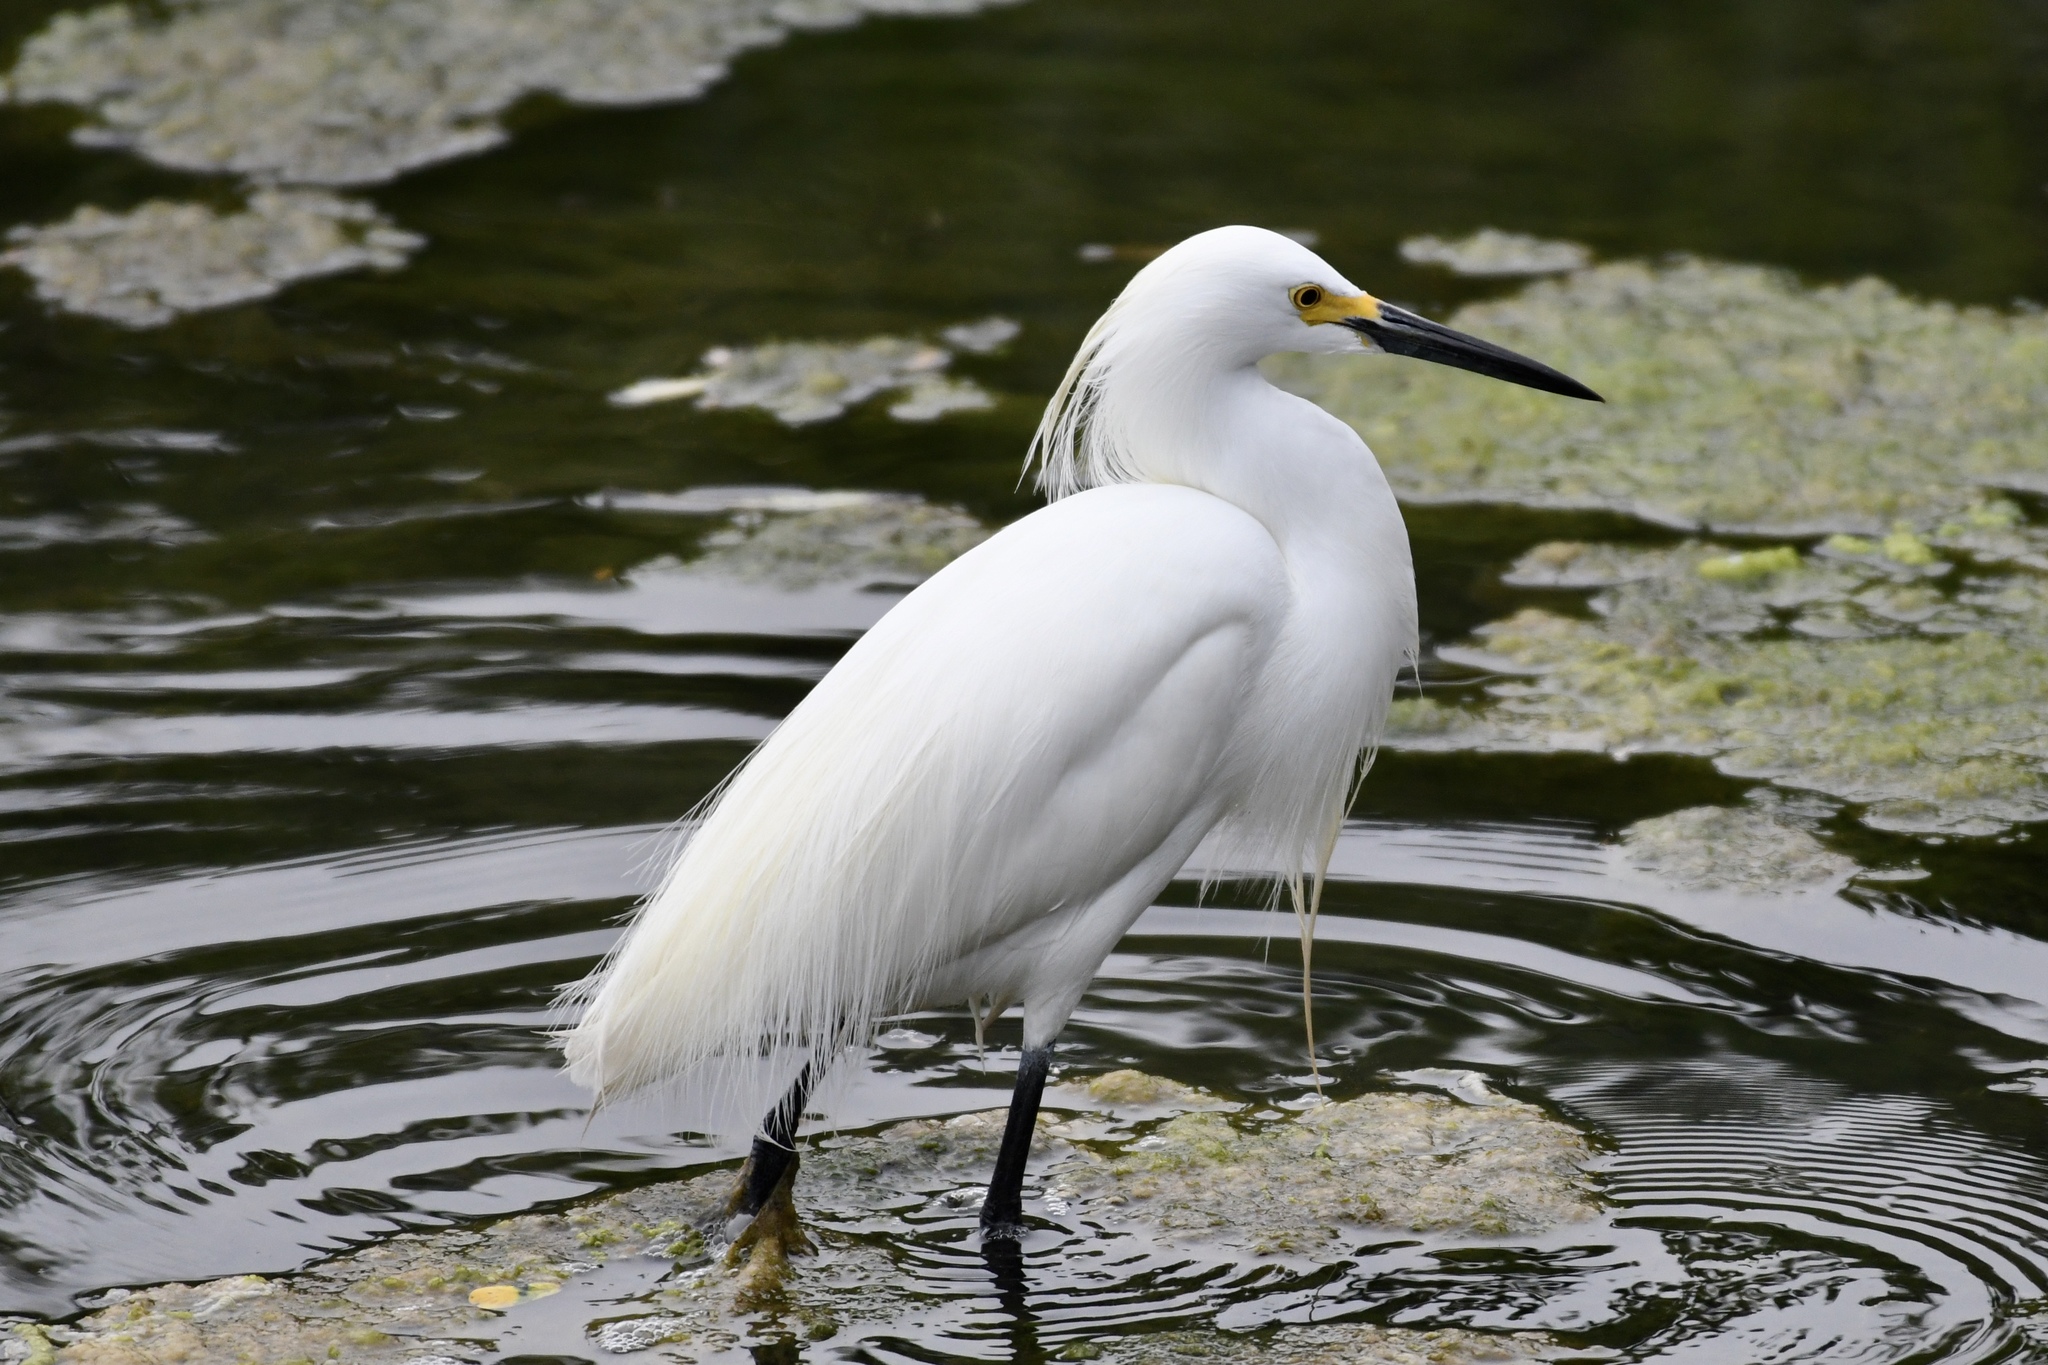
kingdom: Animalia
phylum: Chordata
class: Aves
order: Pelecaniformes
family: Ardeidae
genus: Egretta
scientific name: Egretta thula
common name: Snowy egret
